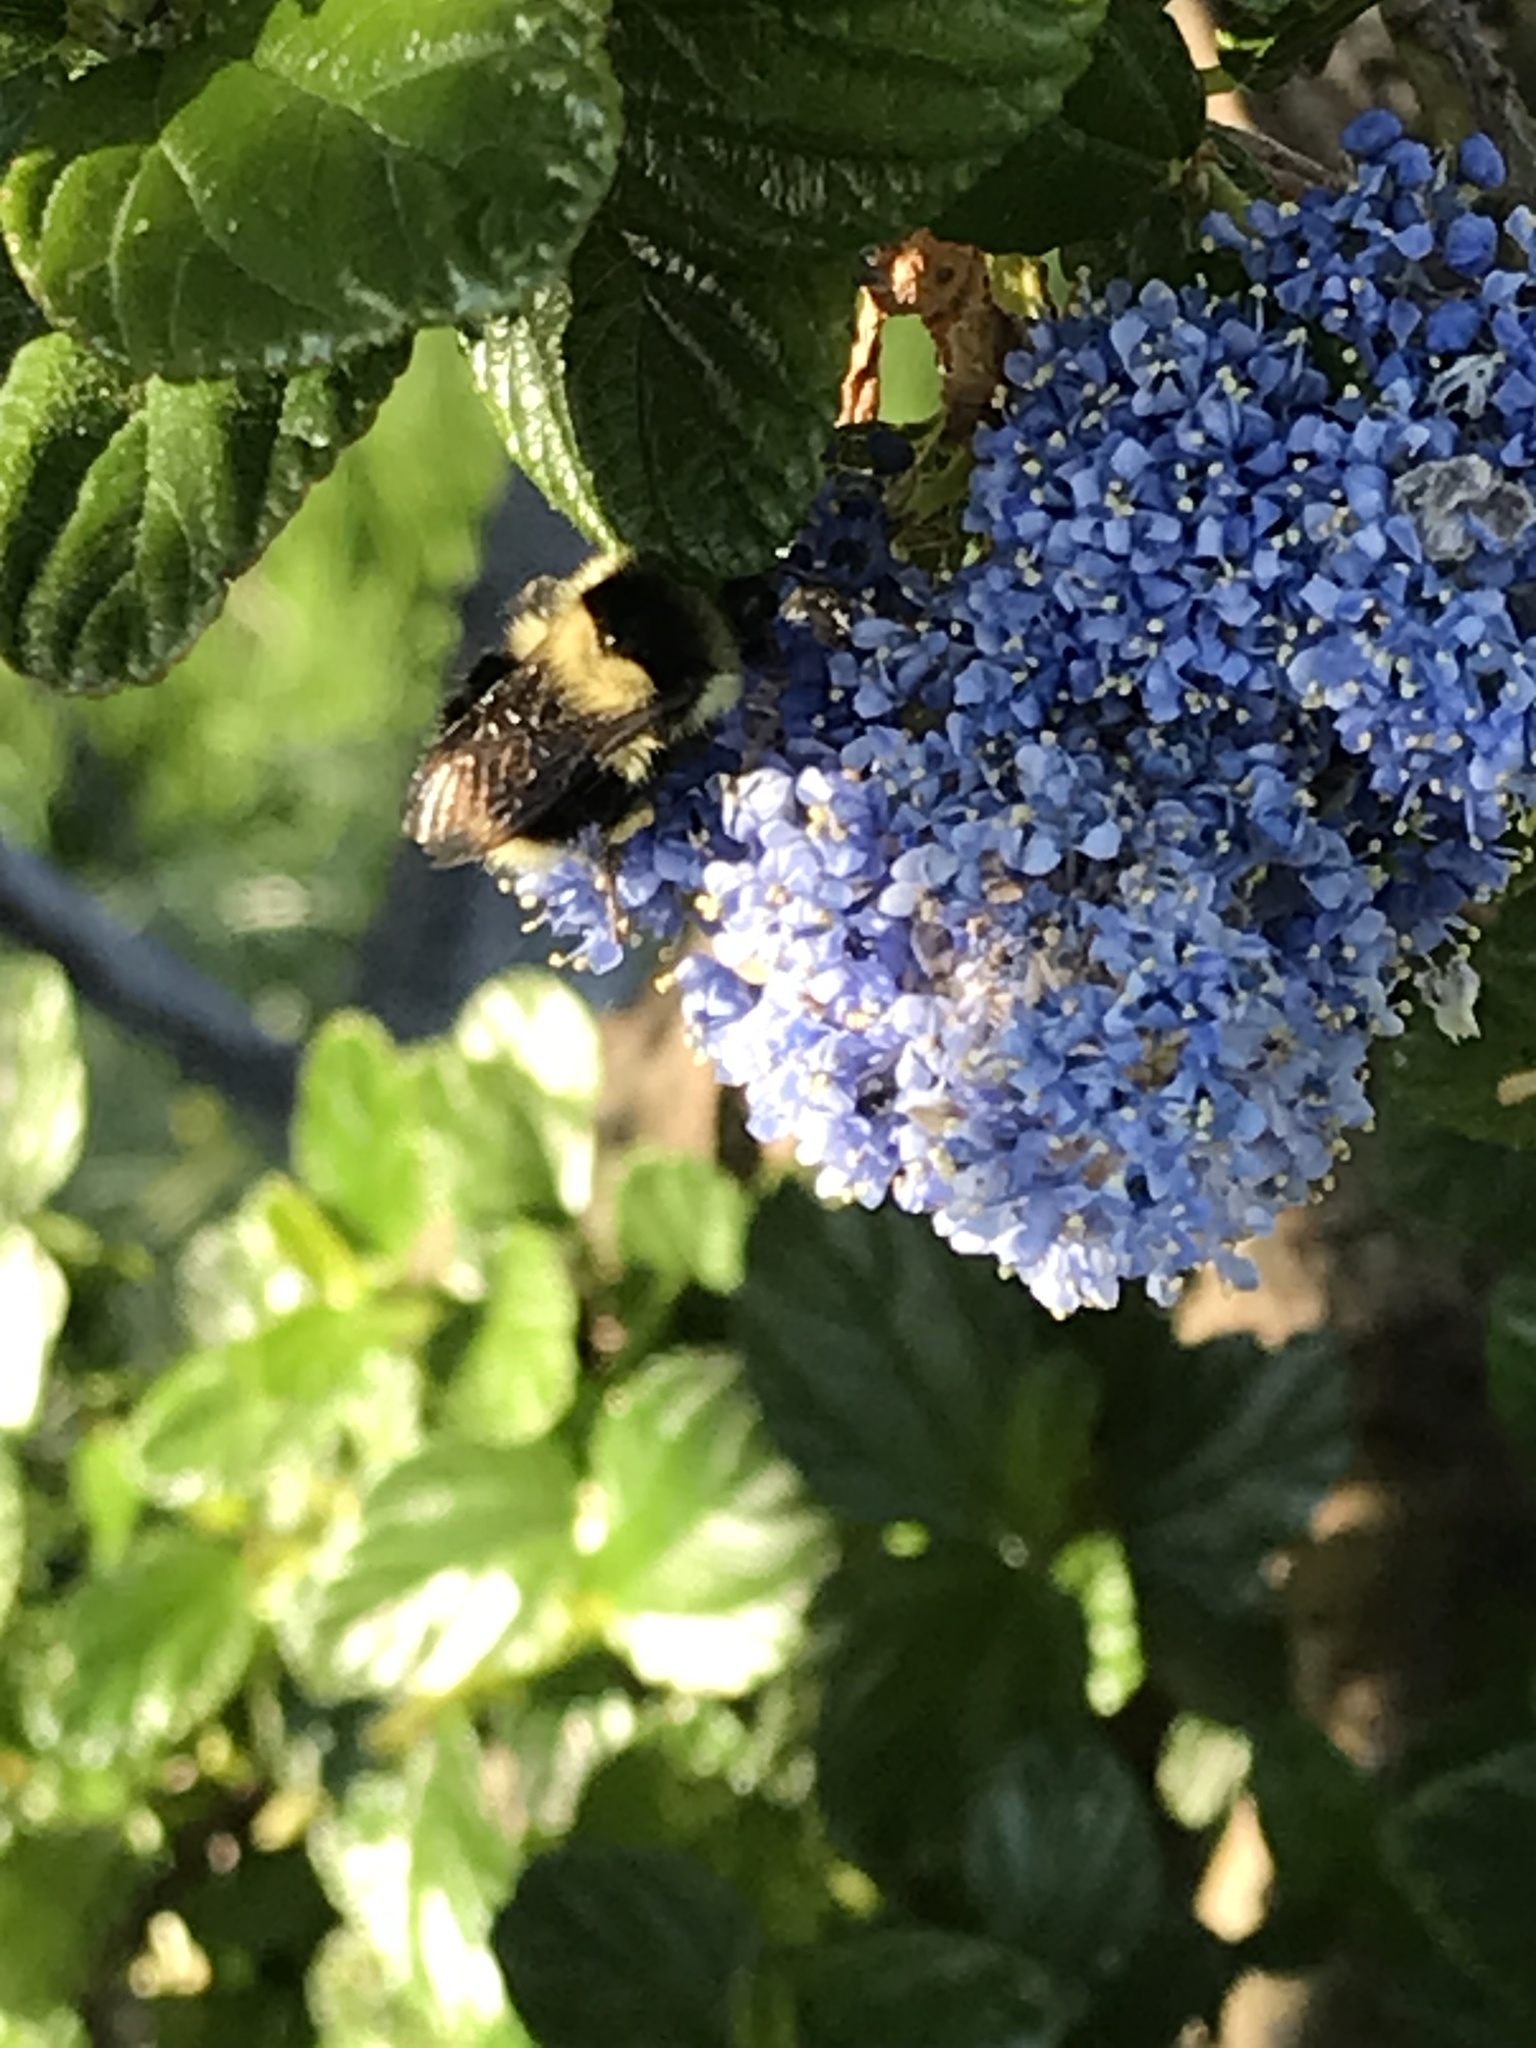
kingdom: Animalia
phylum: Arthropoda
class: Insecta
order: Hymenoptera
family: Apidae
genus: Bombus
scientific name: Bombus melanopygus
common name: Black tail bumble bee
